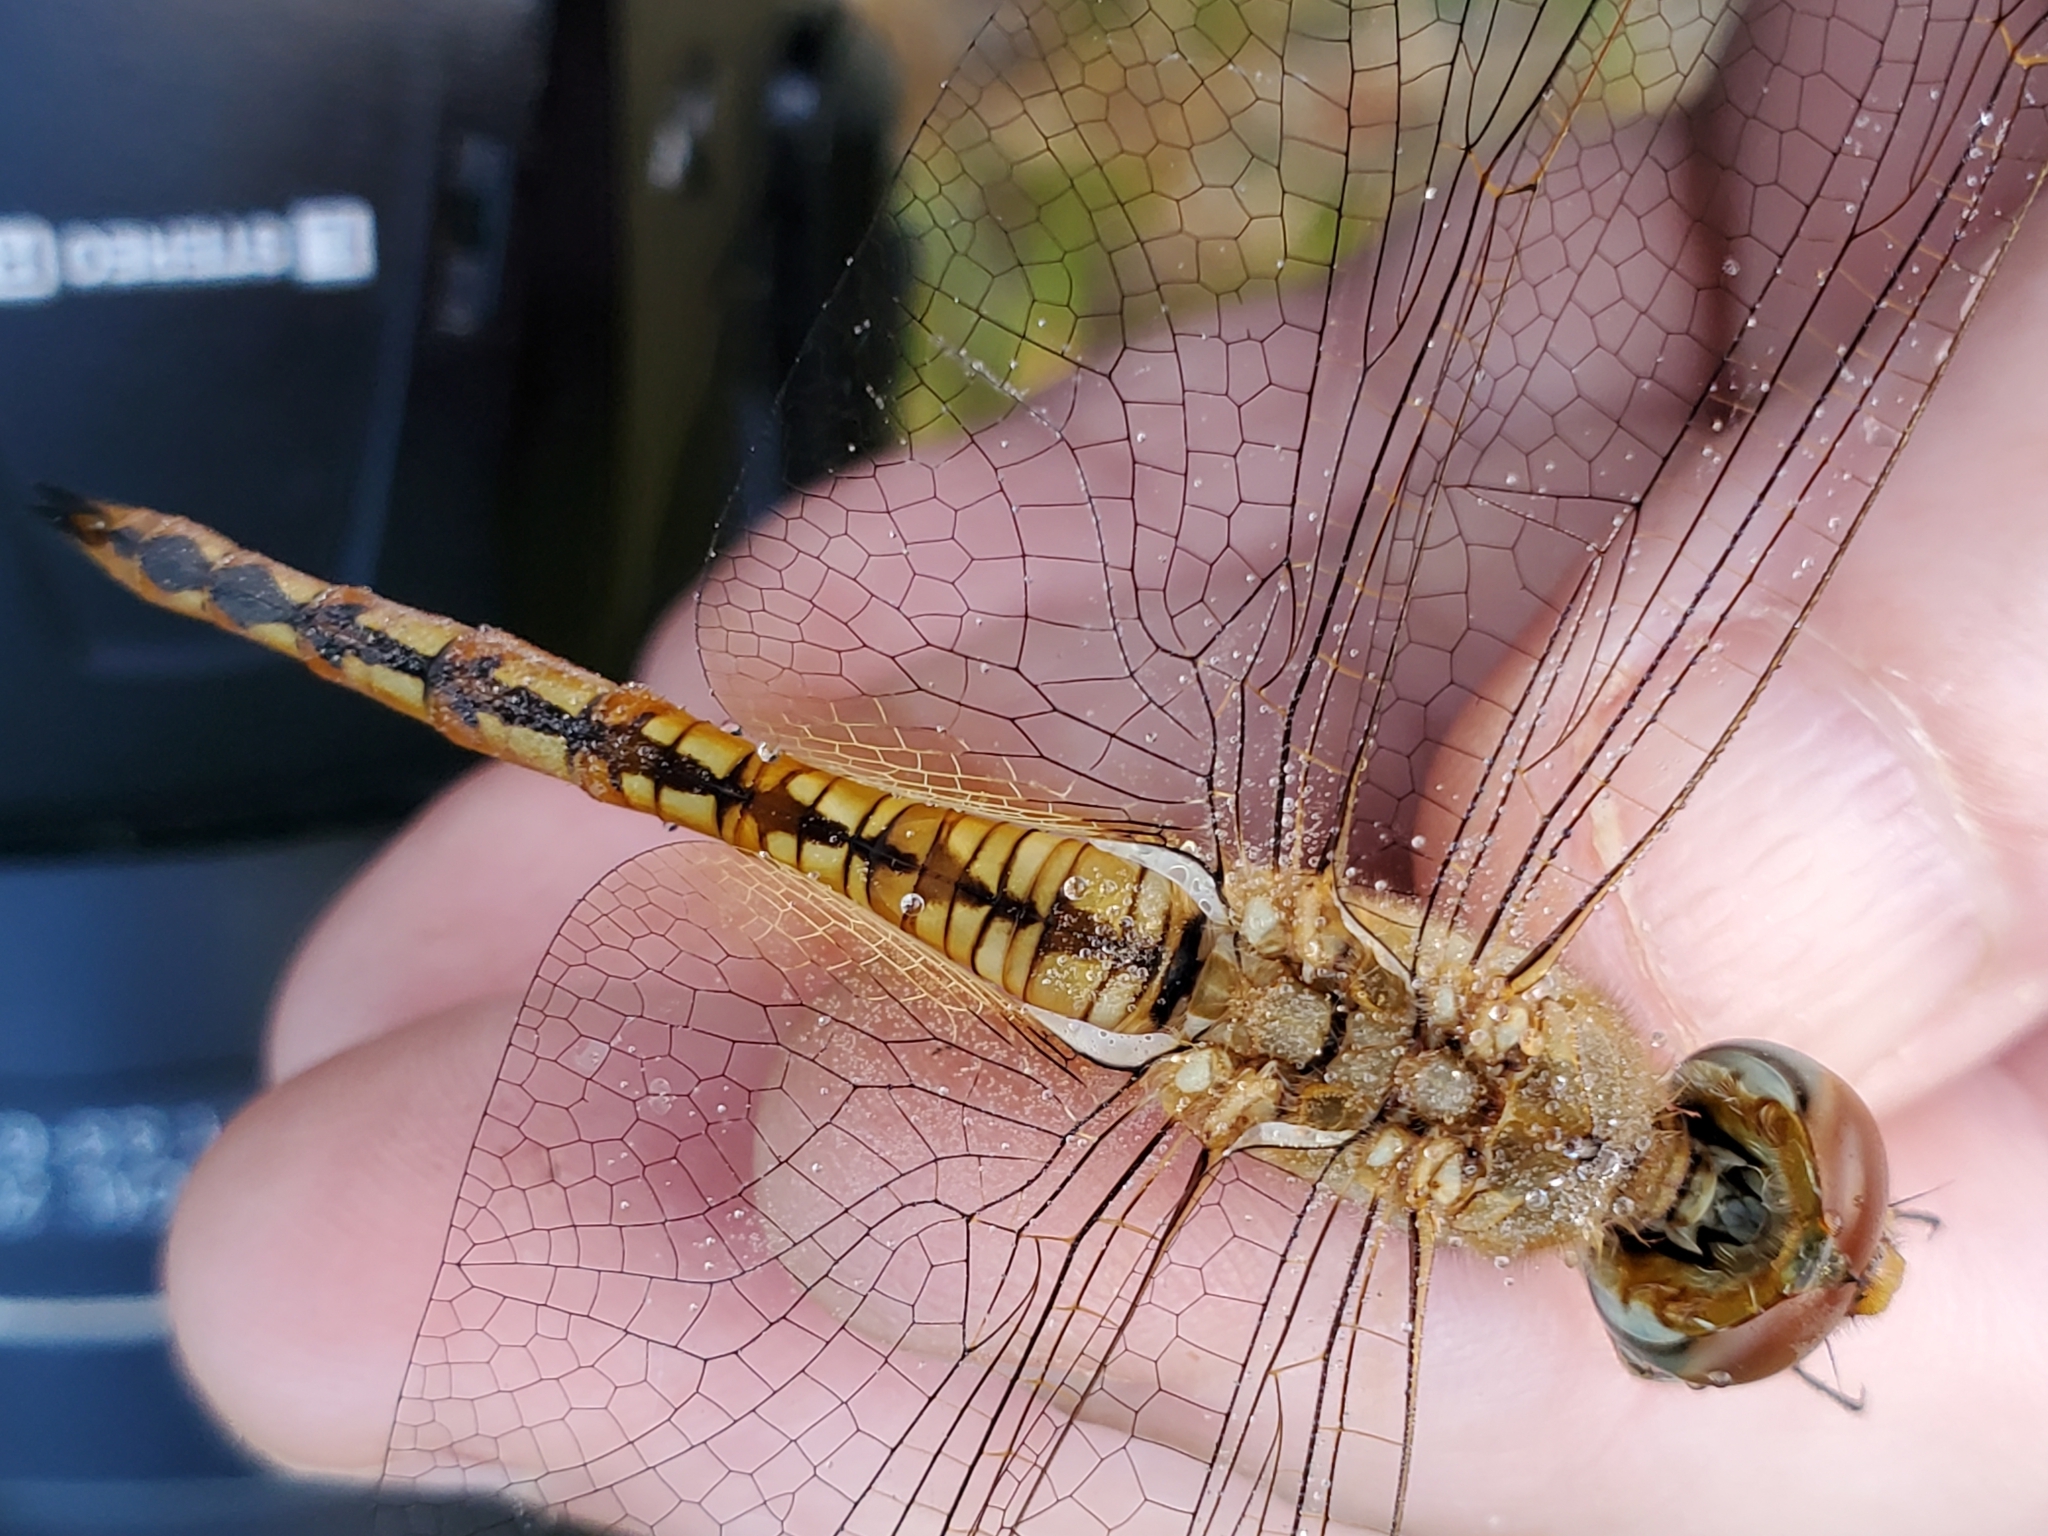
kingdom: Animalia
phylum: Arthropoda
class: Insecta
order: Odonata
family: Libellulidae
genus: Pantala
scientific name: Pantala flavescens
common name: Wandering glider
